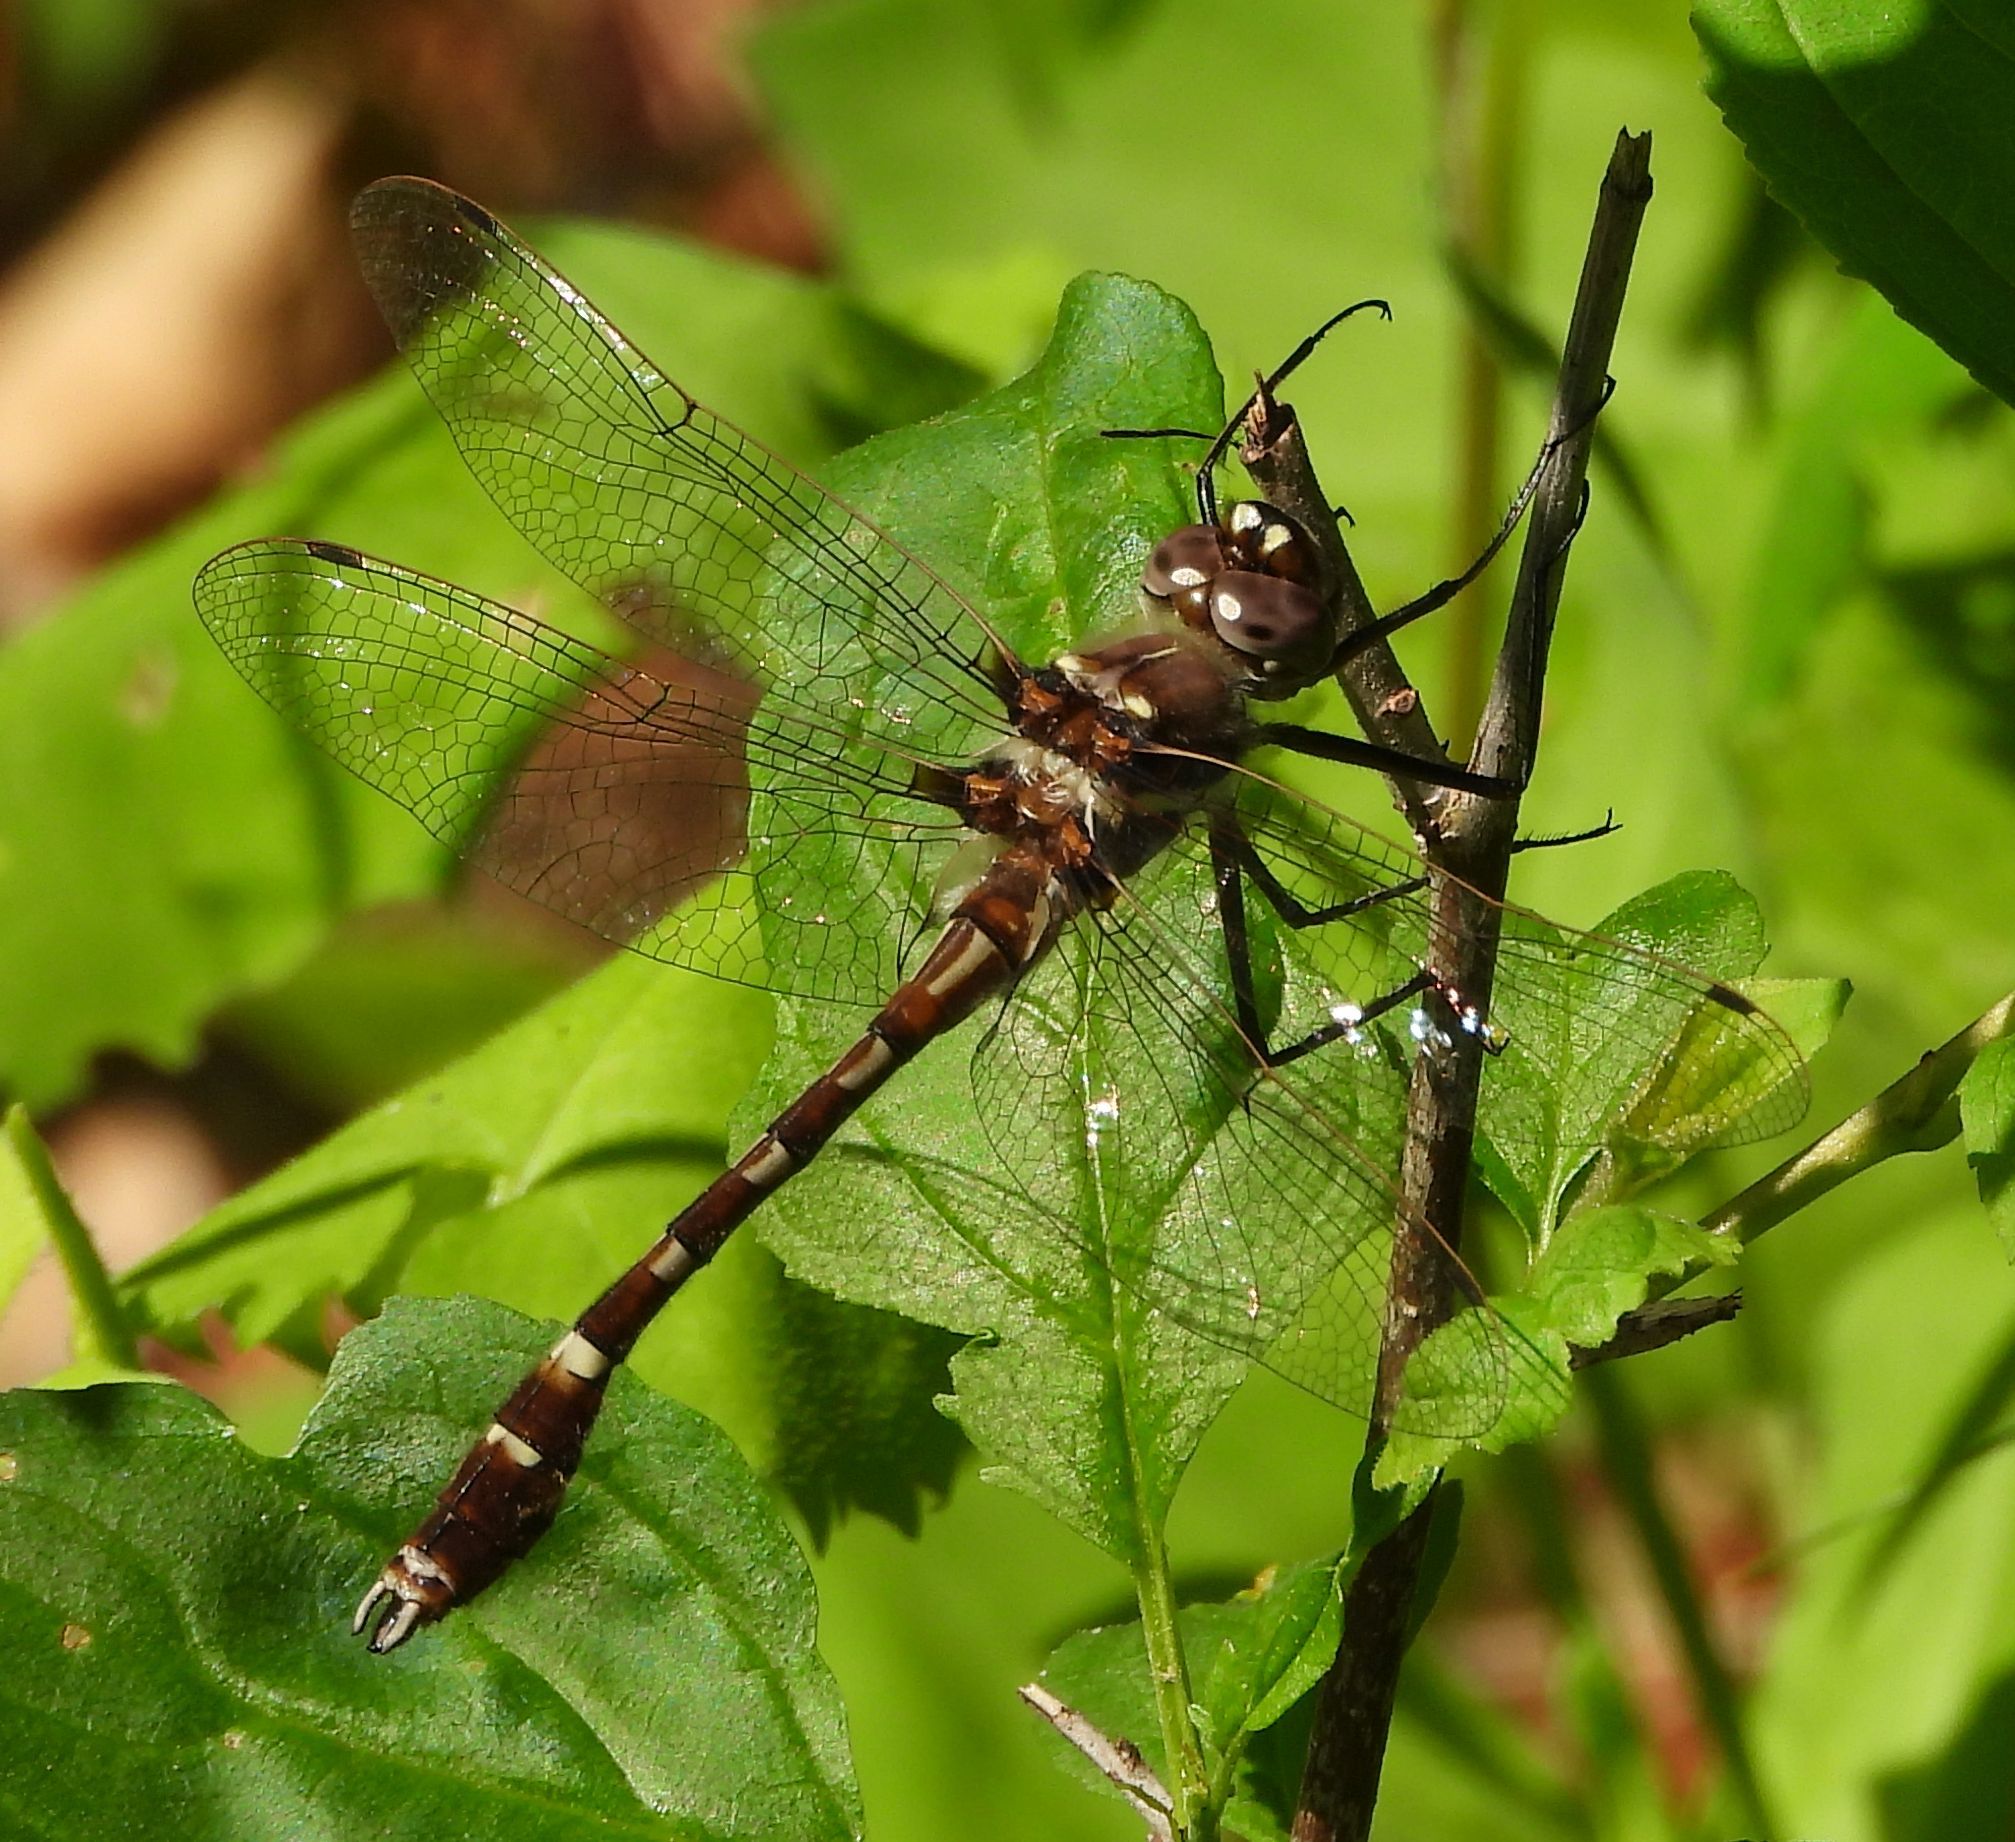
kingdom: Animalia
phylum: Arthropoda
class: Insecta
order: Odonata
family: Macromiidae
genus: Didymops
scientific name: Didymops transversa
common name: Stream cruiser
